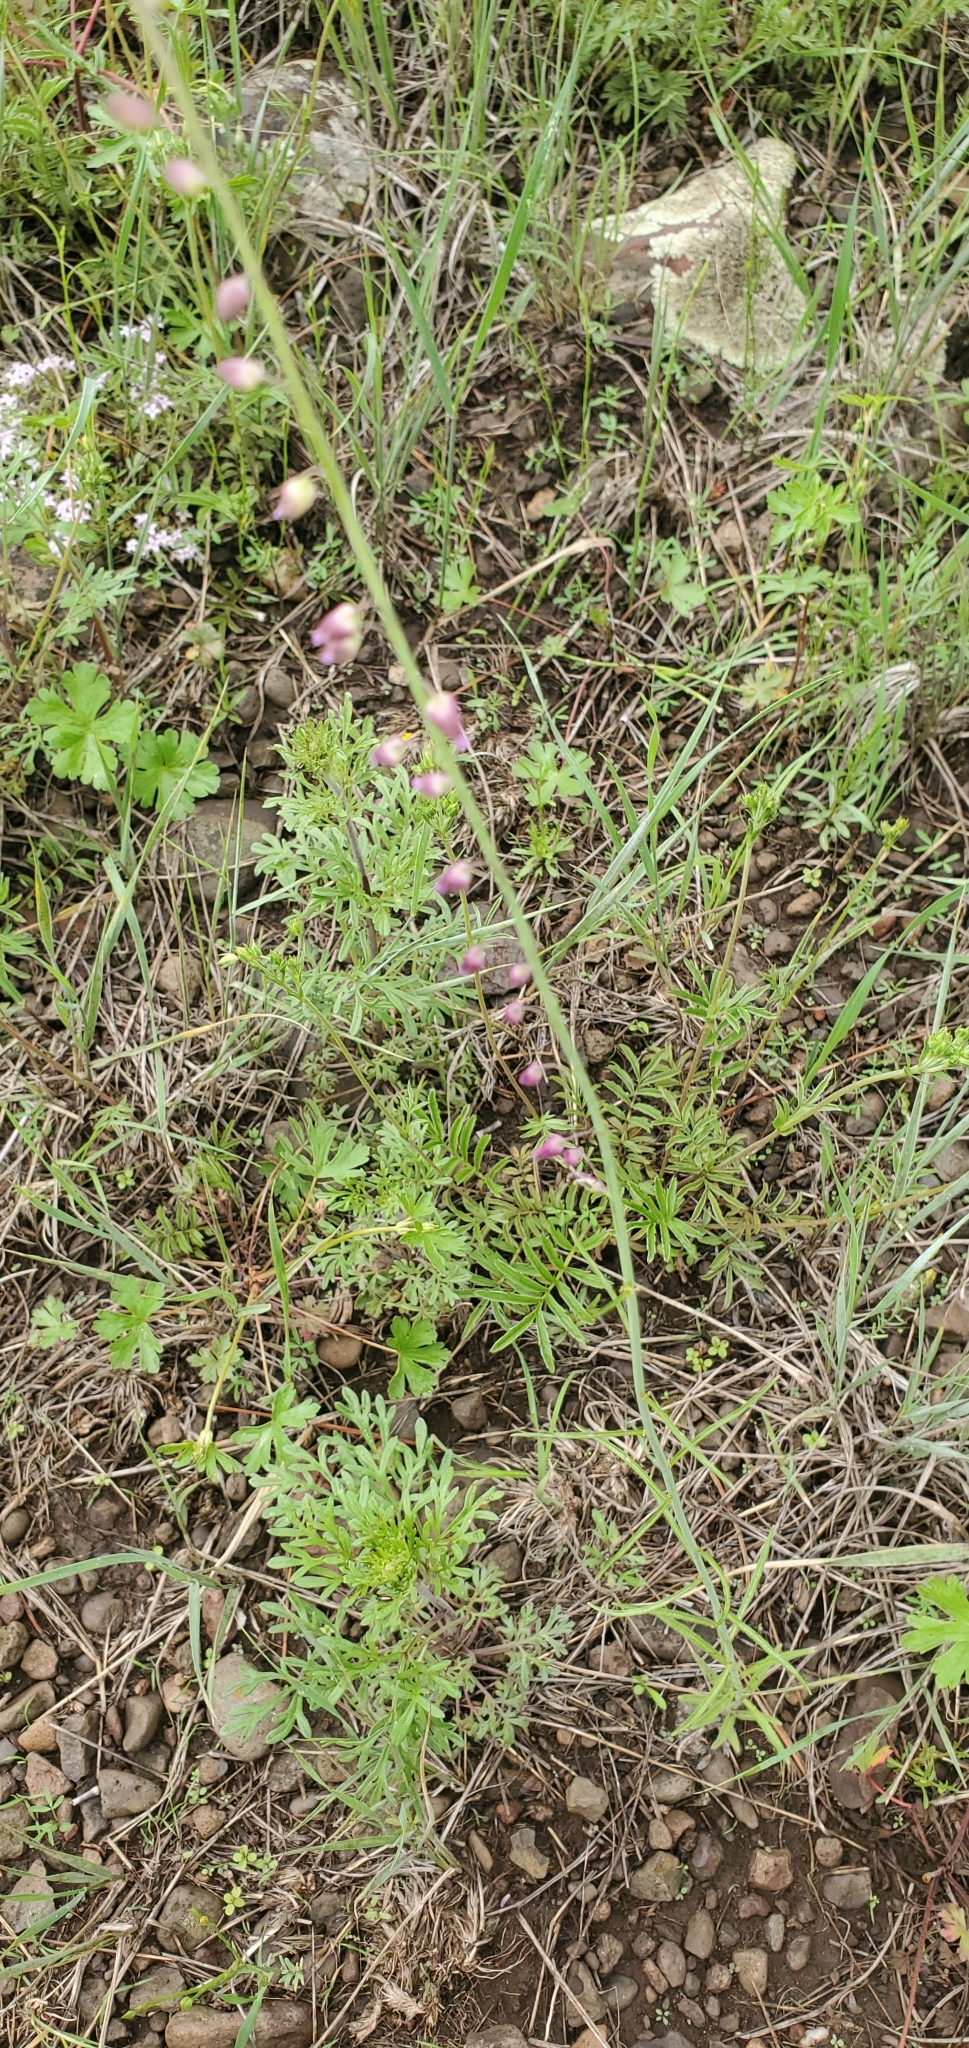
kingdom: Plantae
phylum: Tracheophyta
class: Magnoliopsida
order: Brassicales
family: Brassicaceae
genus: Pennellia
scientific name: Pennellia longifolia
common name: Longleaf mock thelypody
